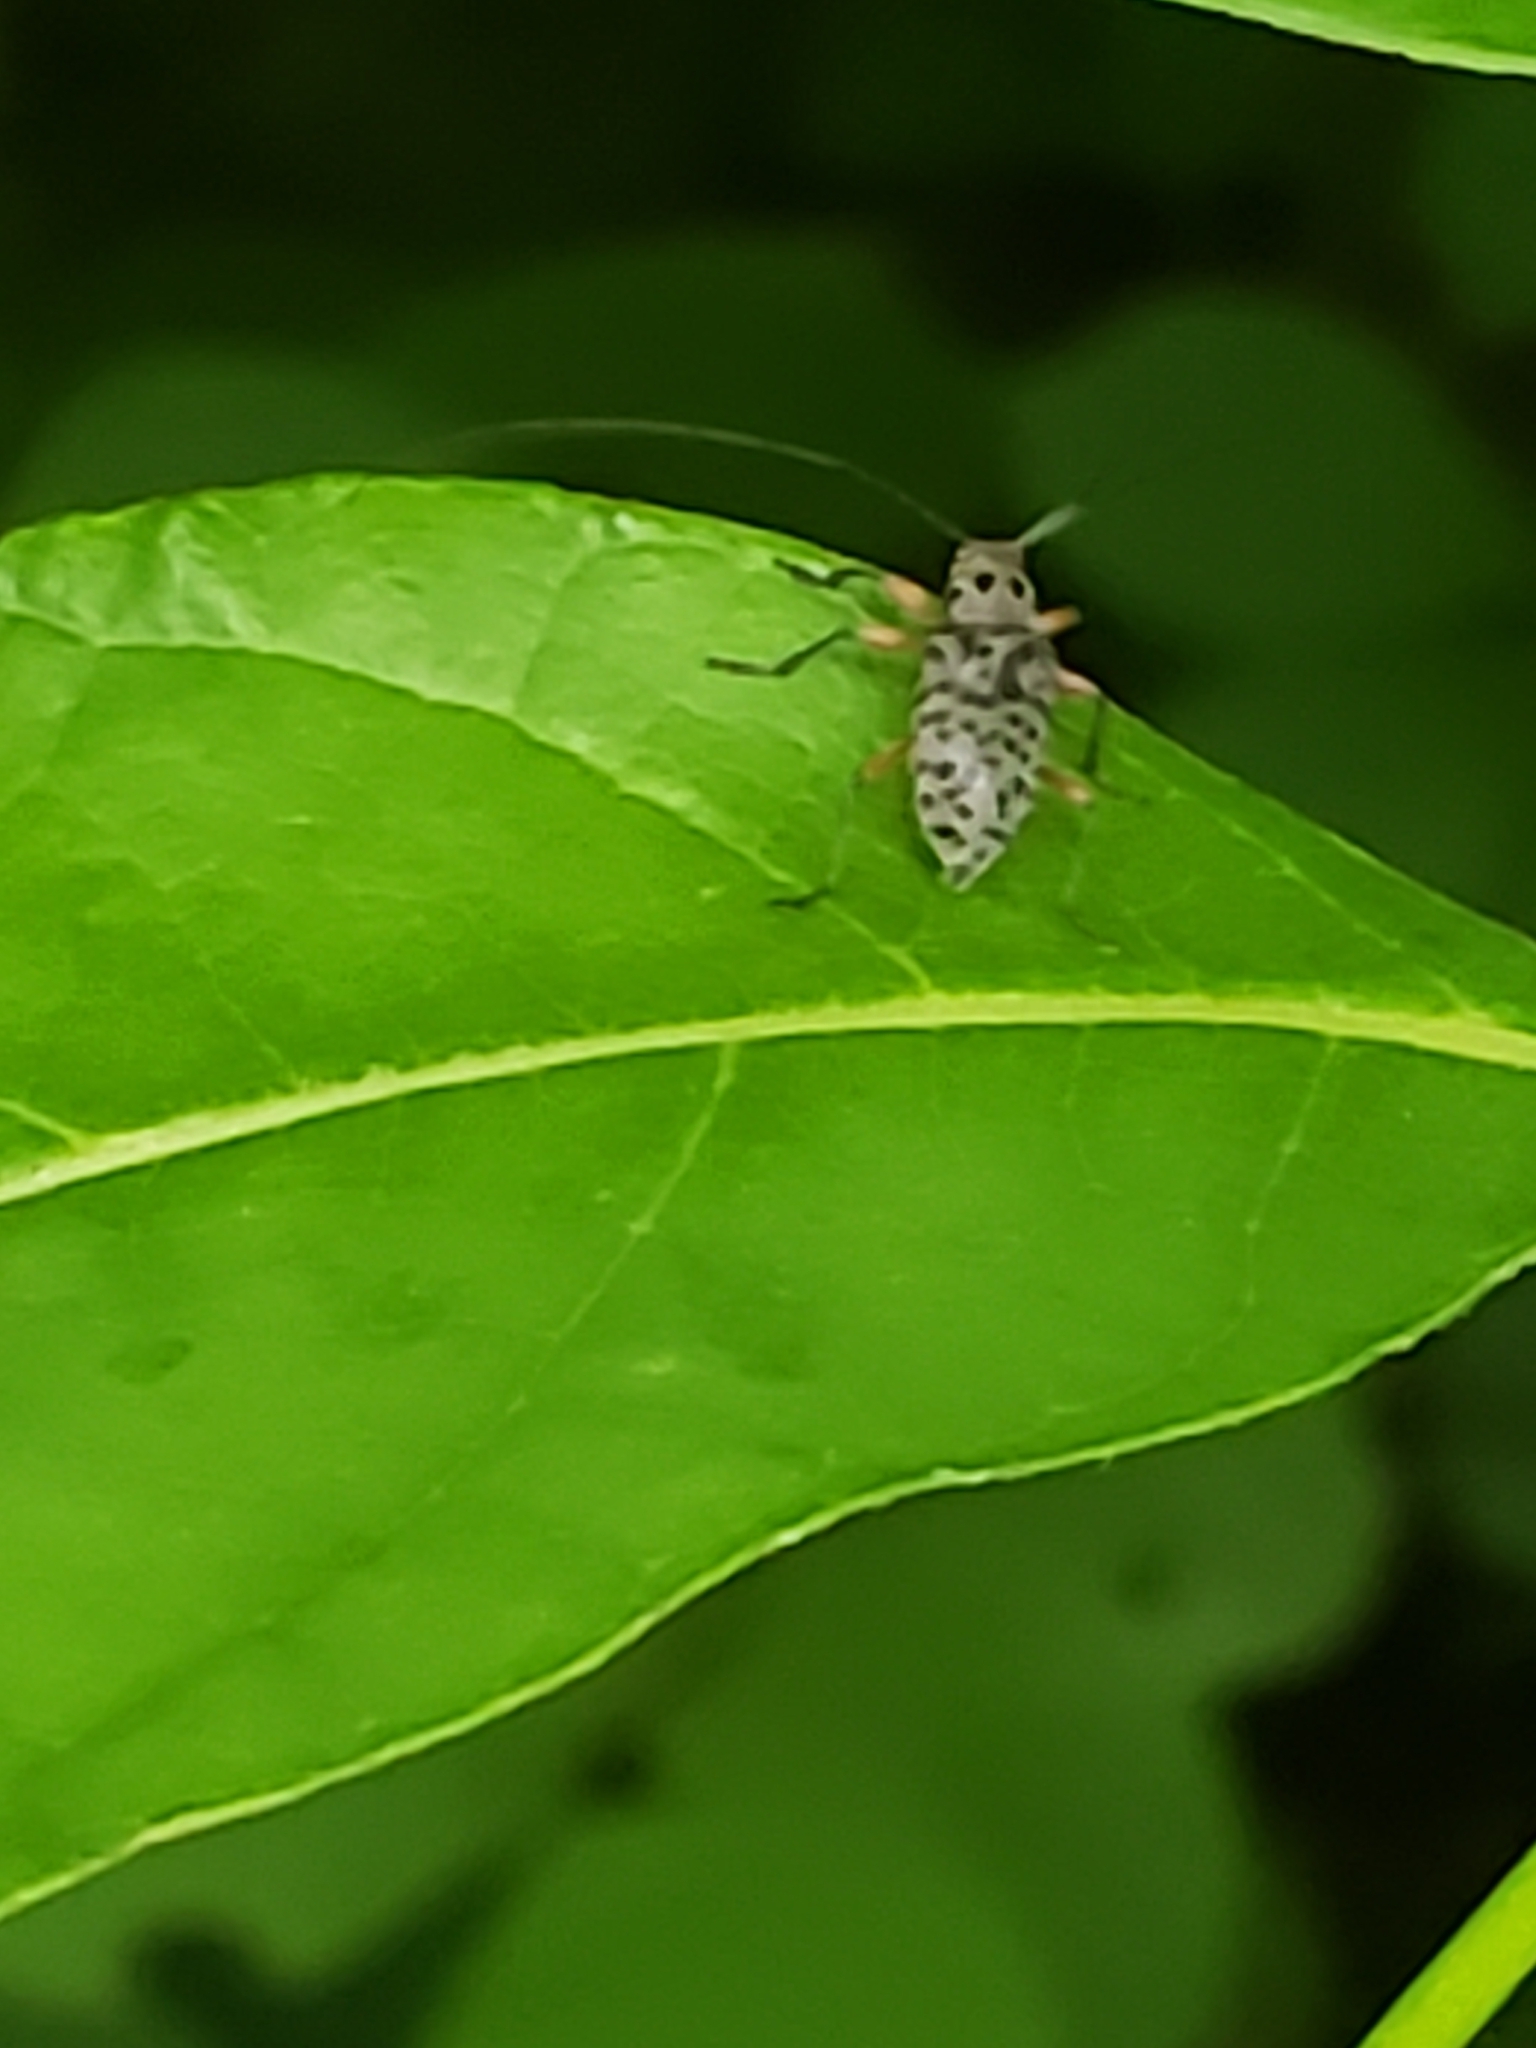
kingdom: Animalia
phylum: Arthropoda
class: Insecta
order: Coleoptera
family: Cerambycidae
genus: Hyperplatys
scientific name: Hyperplatys aspersa
